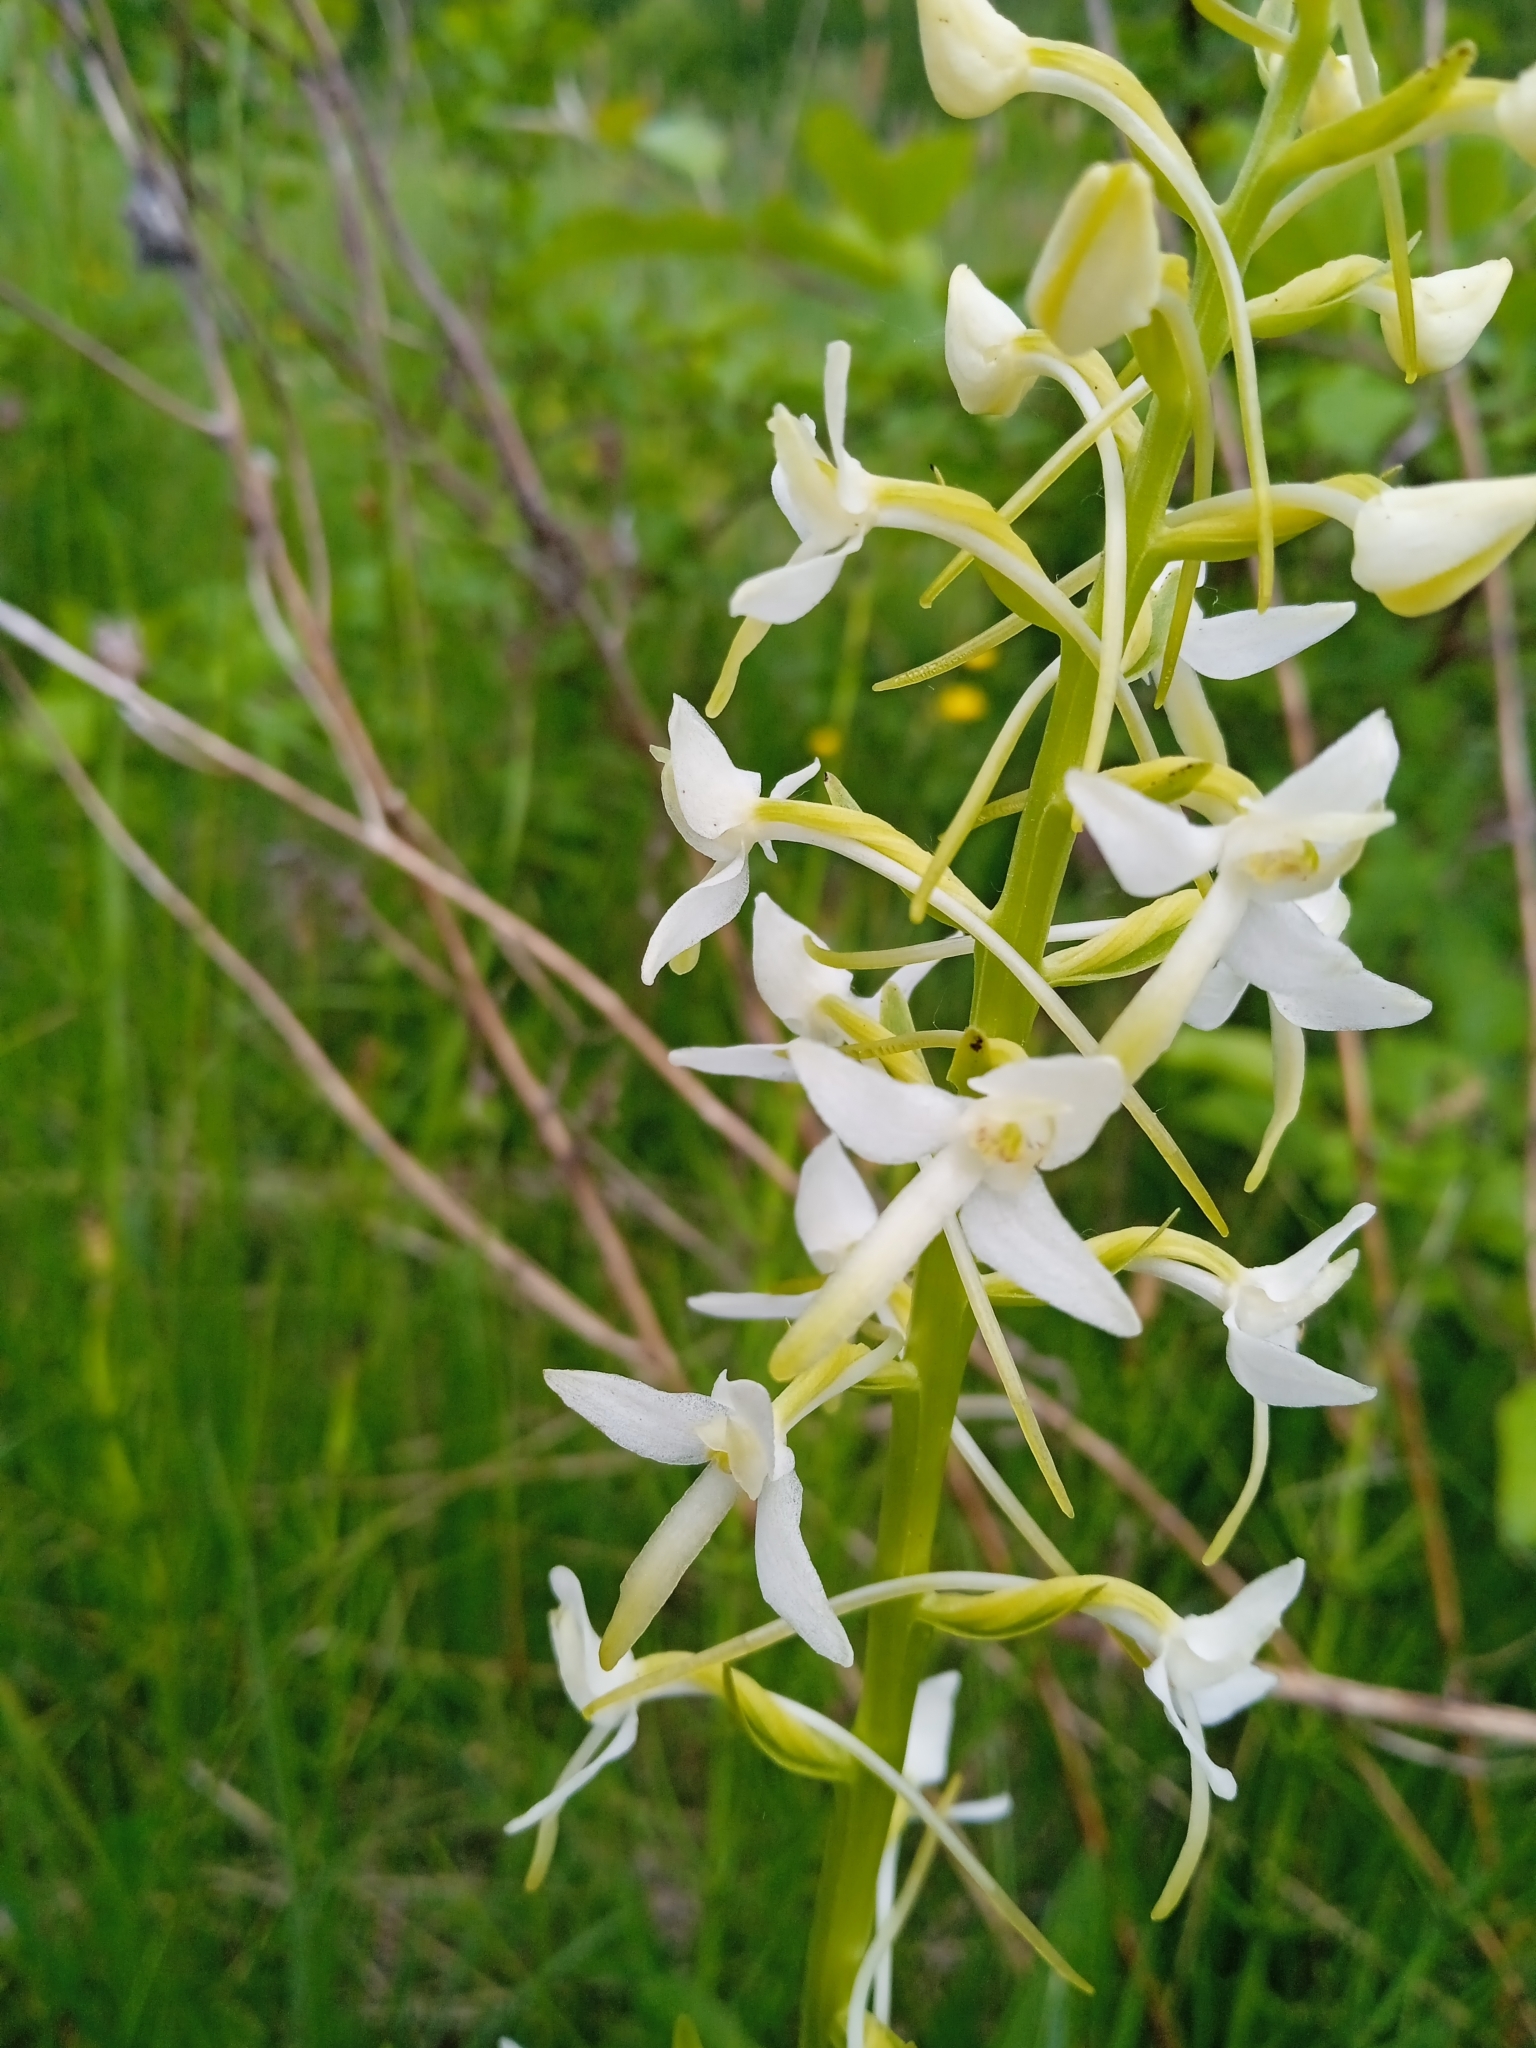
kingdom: Plantae
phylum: Tracheophyta
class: Liliopsida
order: Asparagales
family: Orchidaceae
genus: Platanthera
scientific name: Platanthera bifolia
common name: Lesser butterfly-orchid
